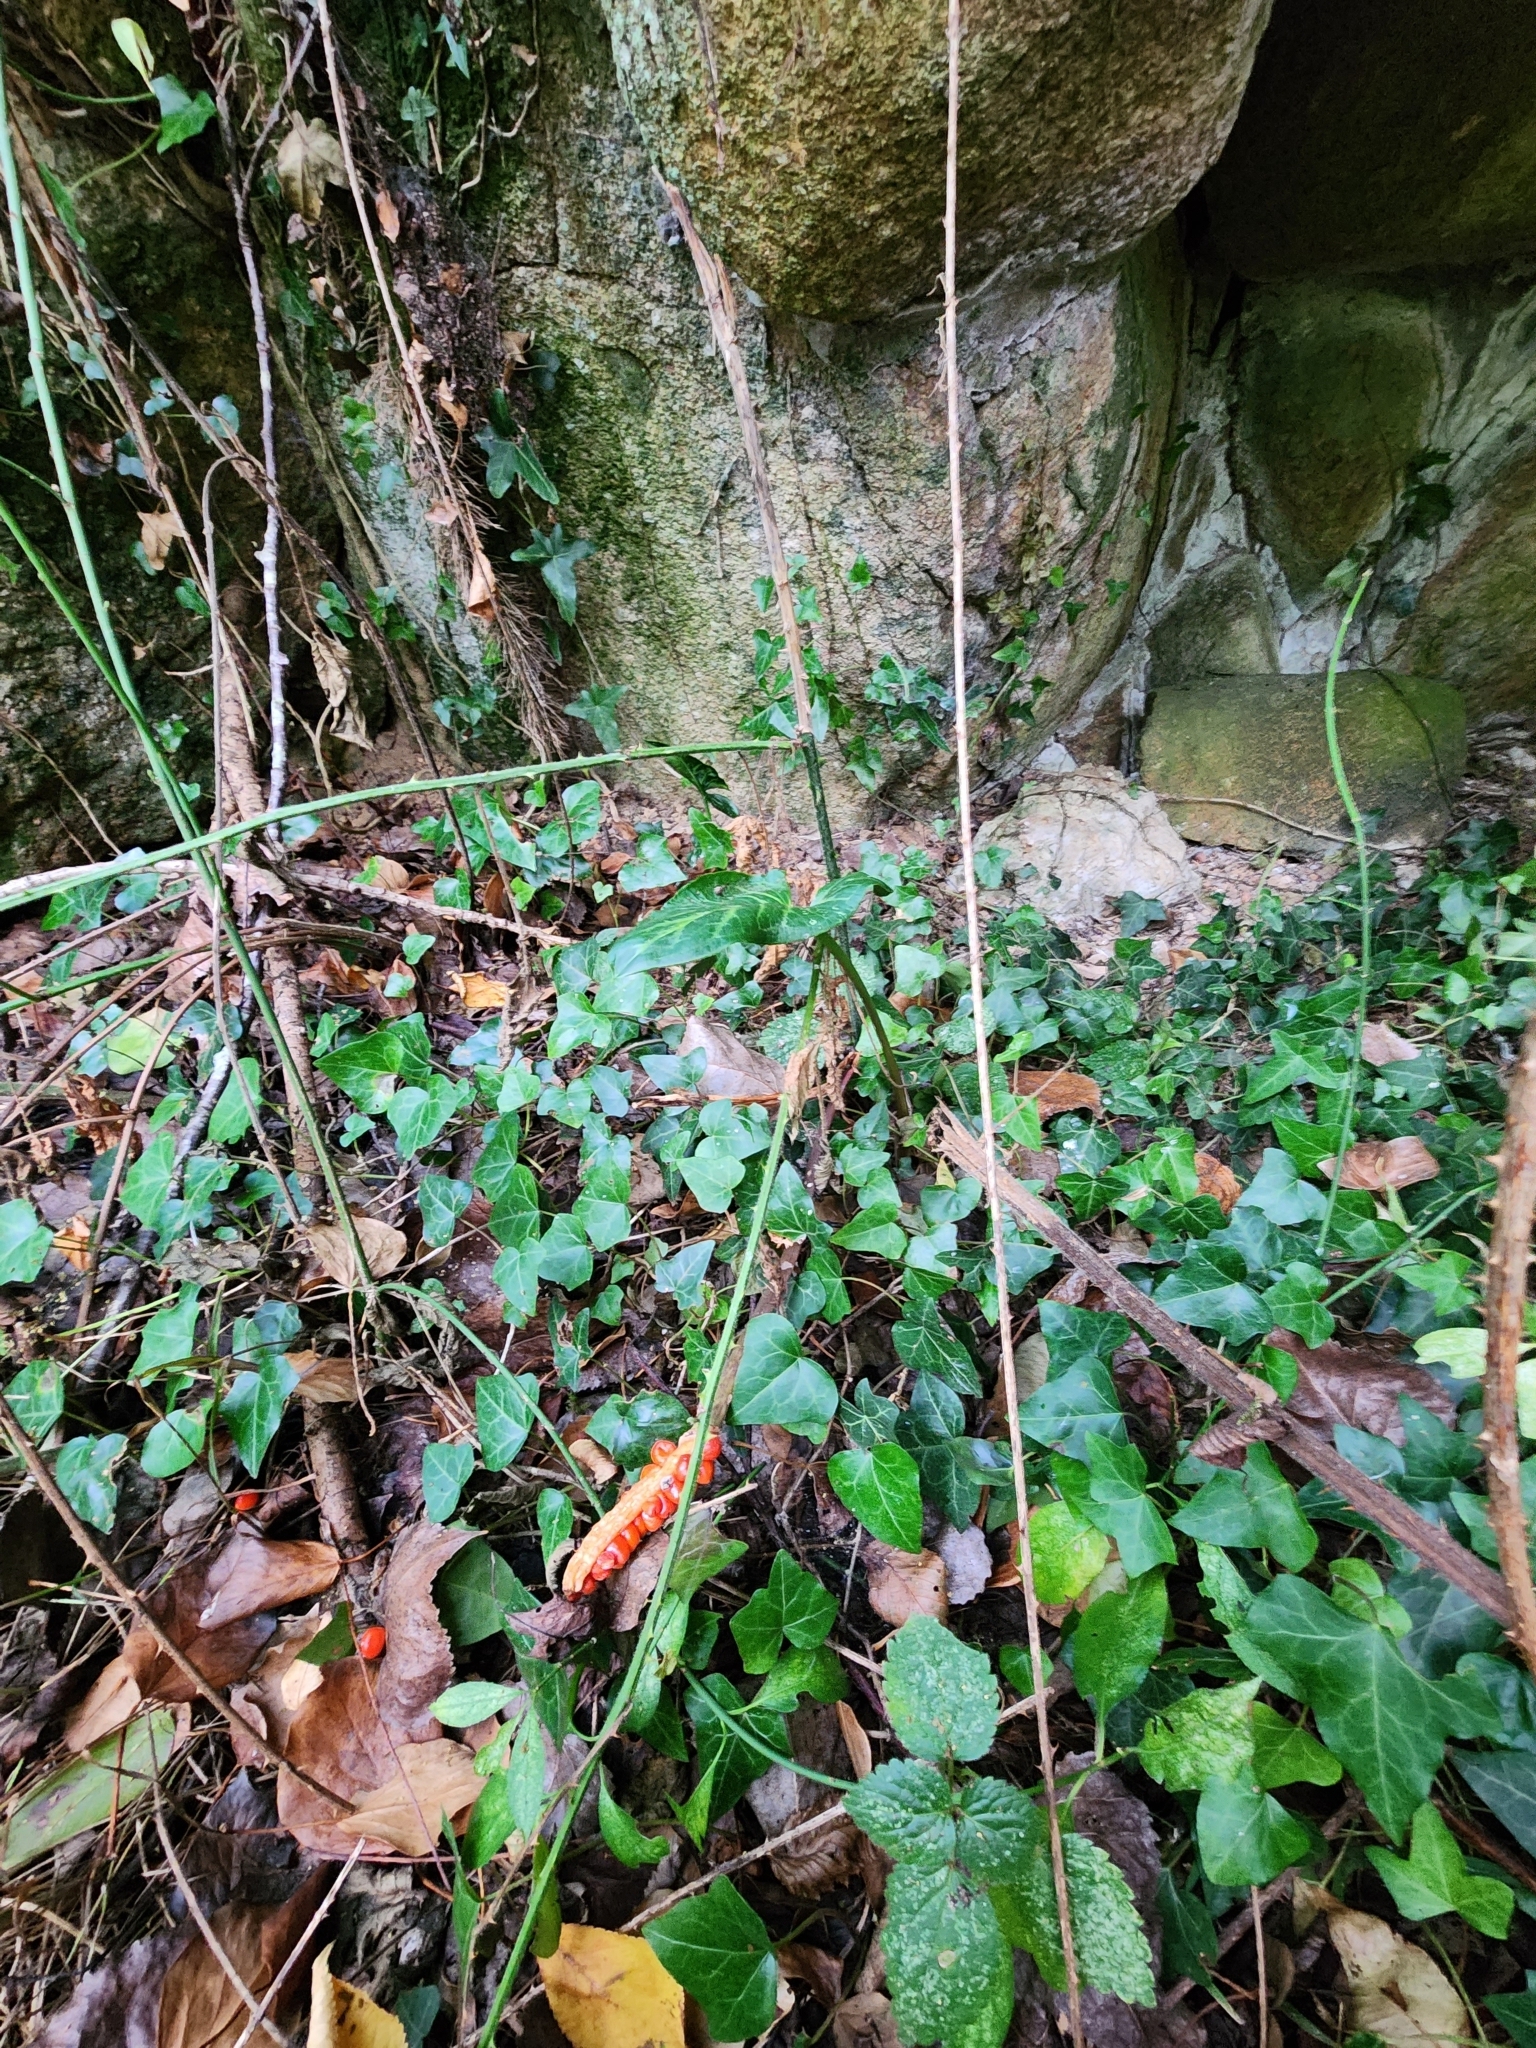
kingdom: Plantae
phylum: Tracheophyta
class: Liliopsida
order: Alismatales
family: Araceae
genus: Arum
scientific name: Arum italicum
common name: Italian lords-and-ladies
